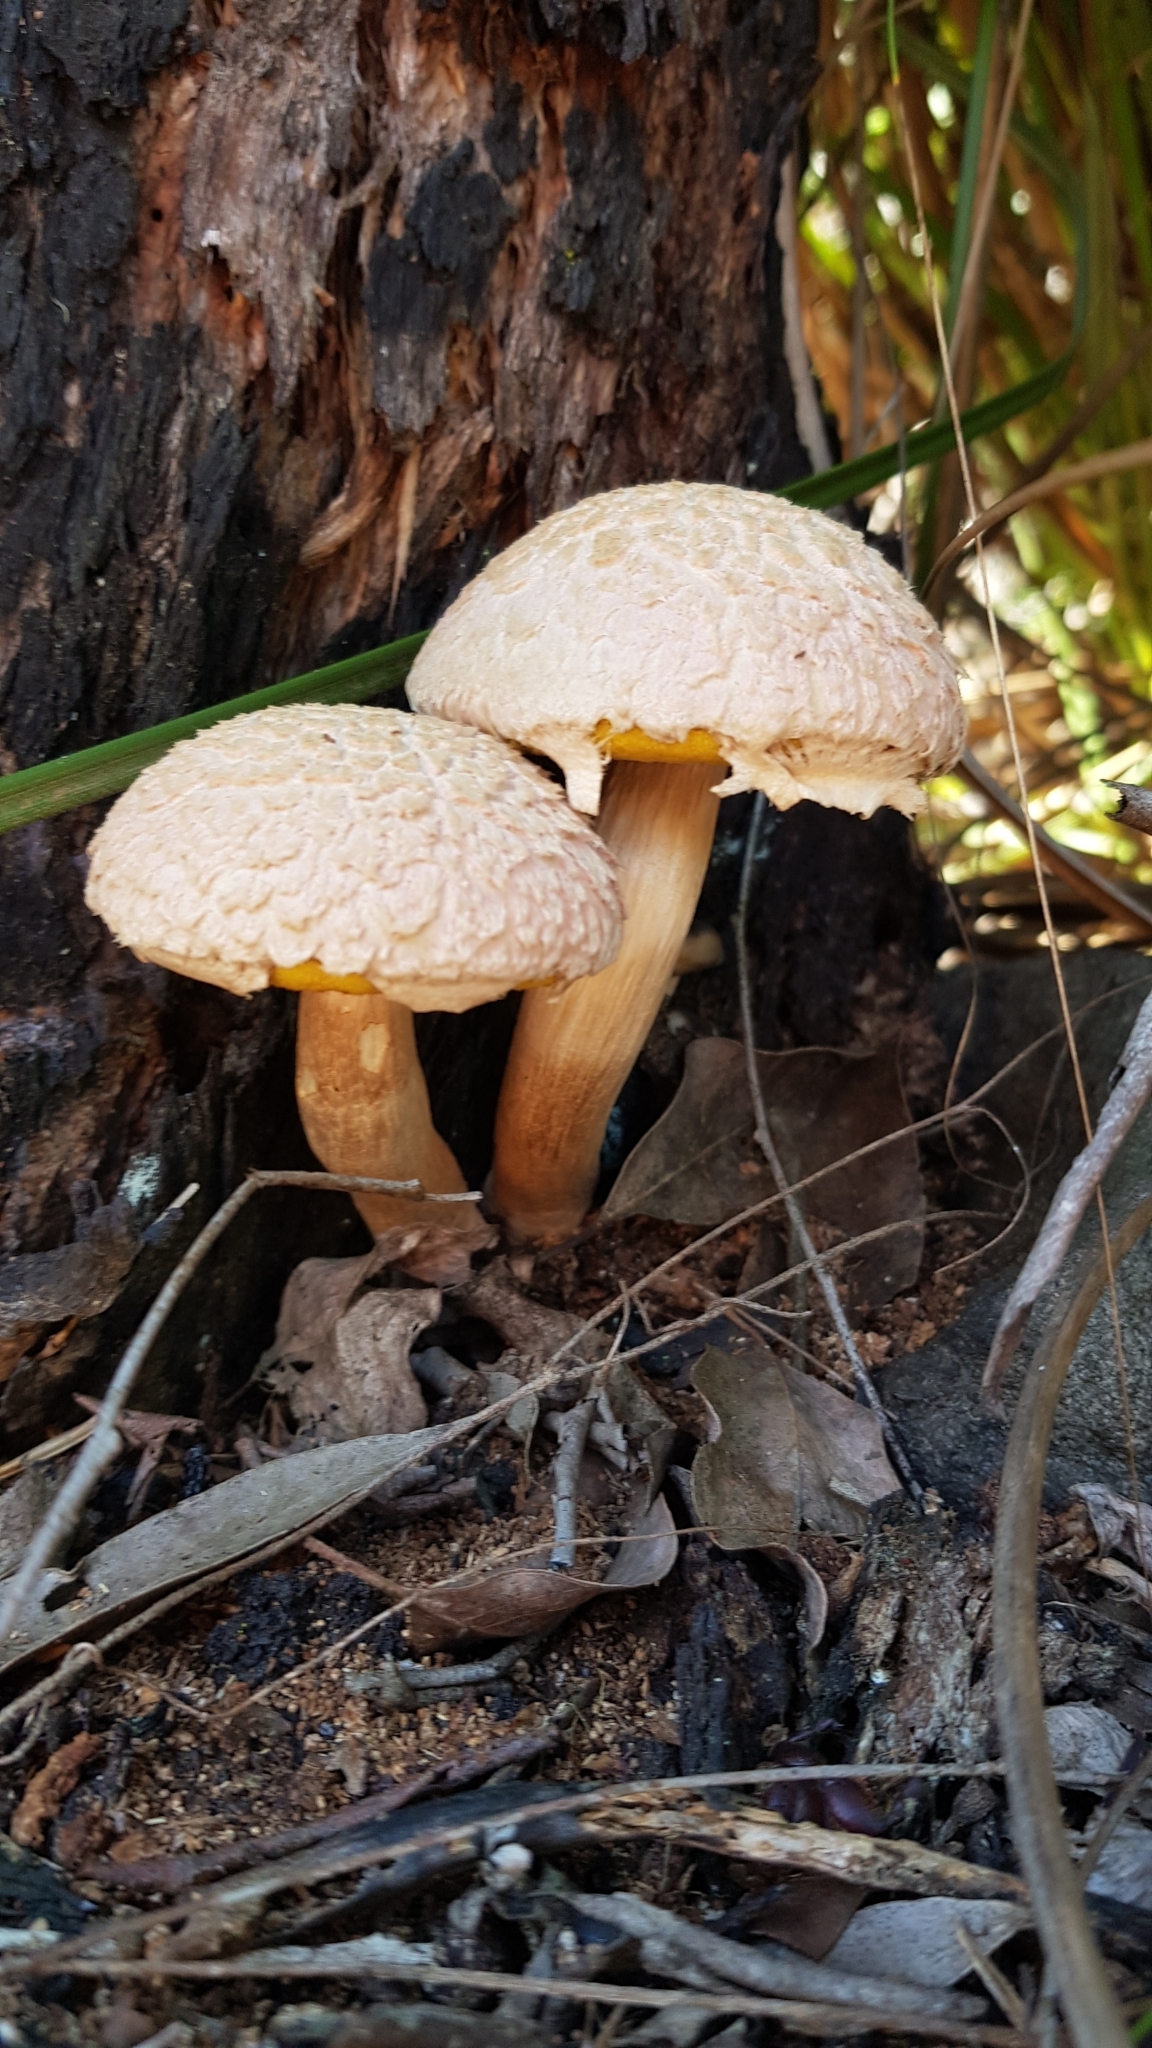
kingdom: Fungi
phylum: Basidiomycota
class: Agaricomycetes
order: Boletales
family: Boletaceae
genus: Boletellus
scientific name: Boletellus dissiliens
